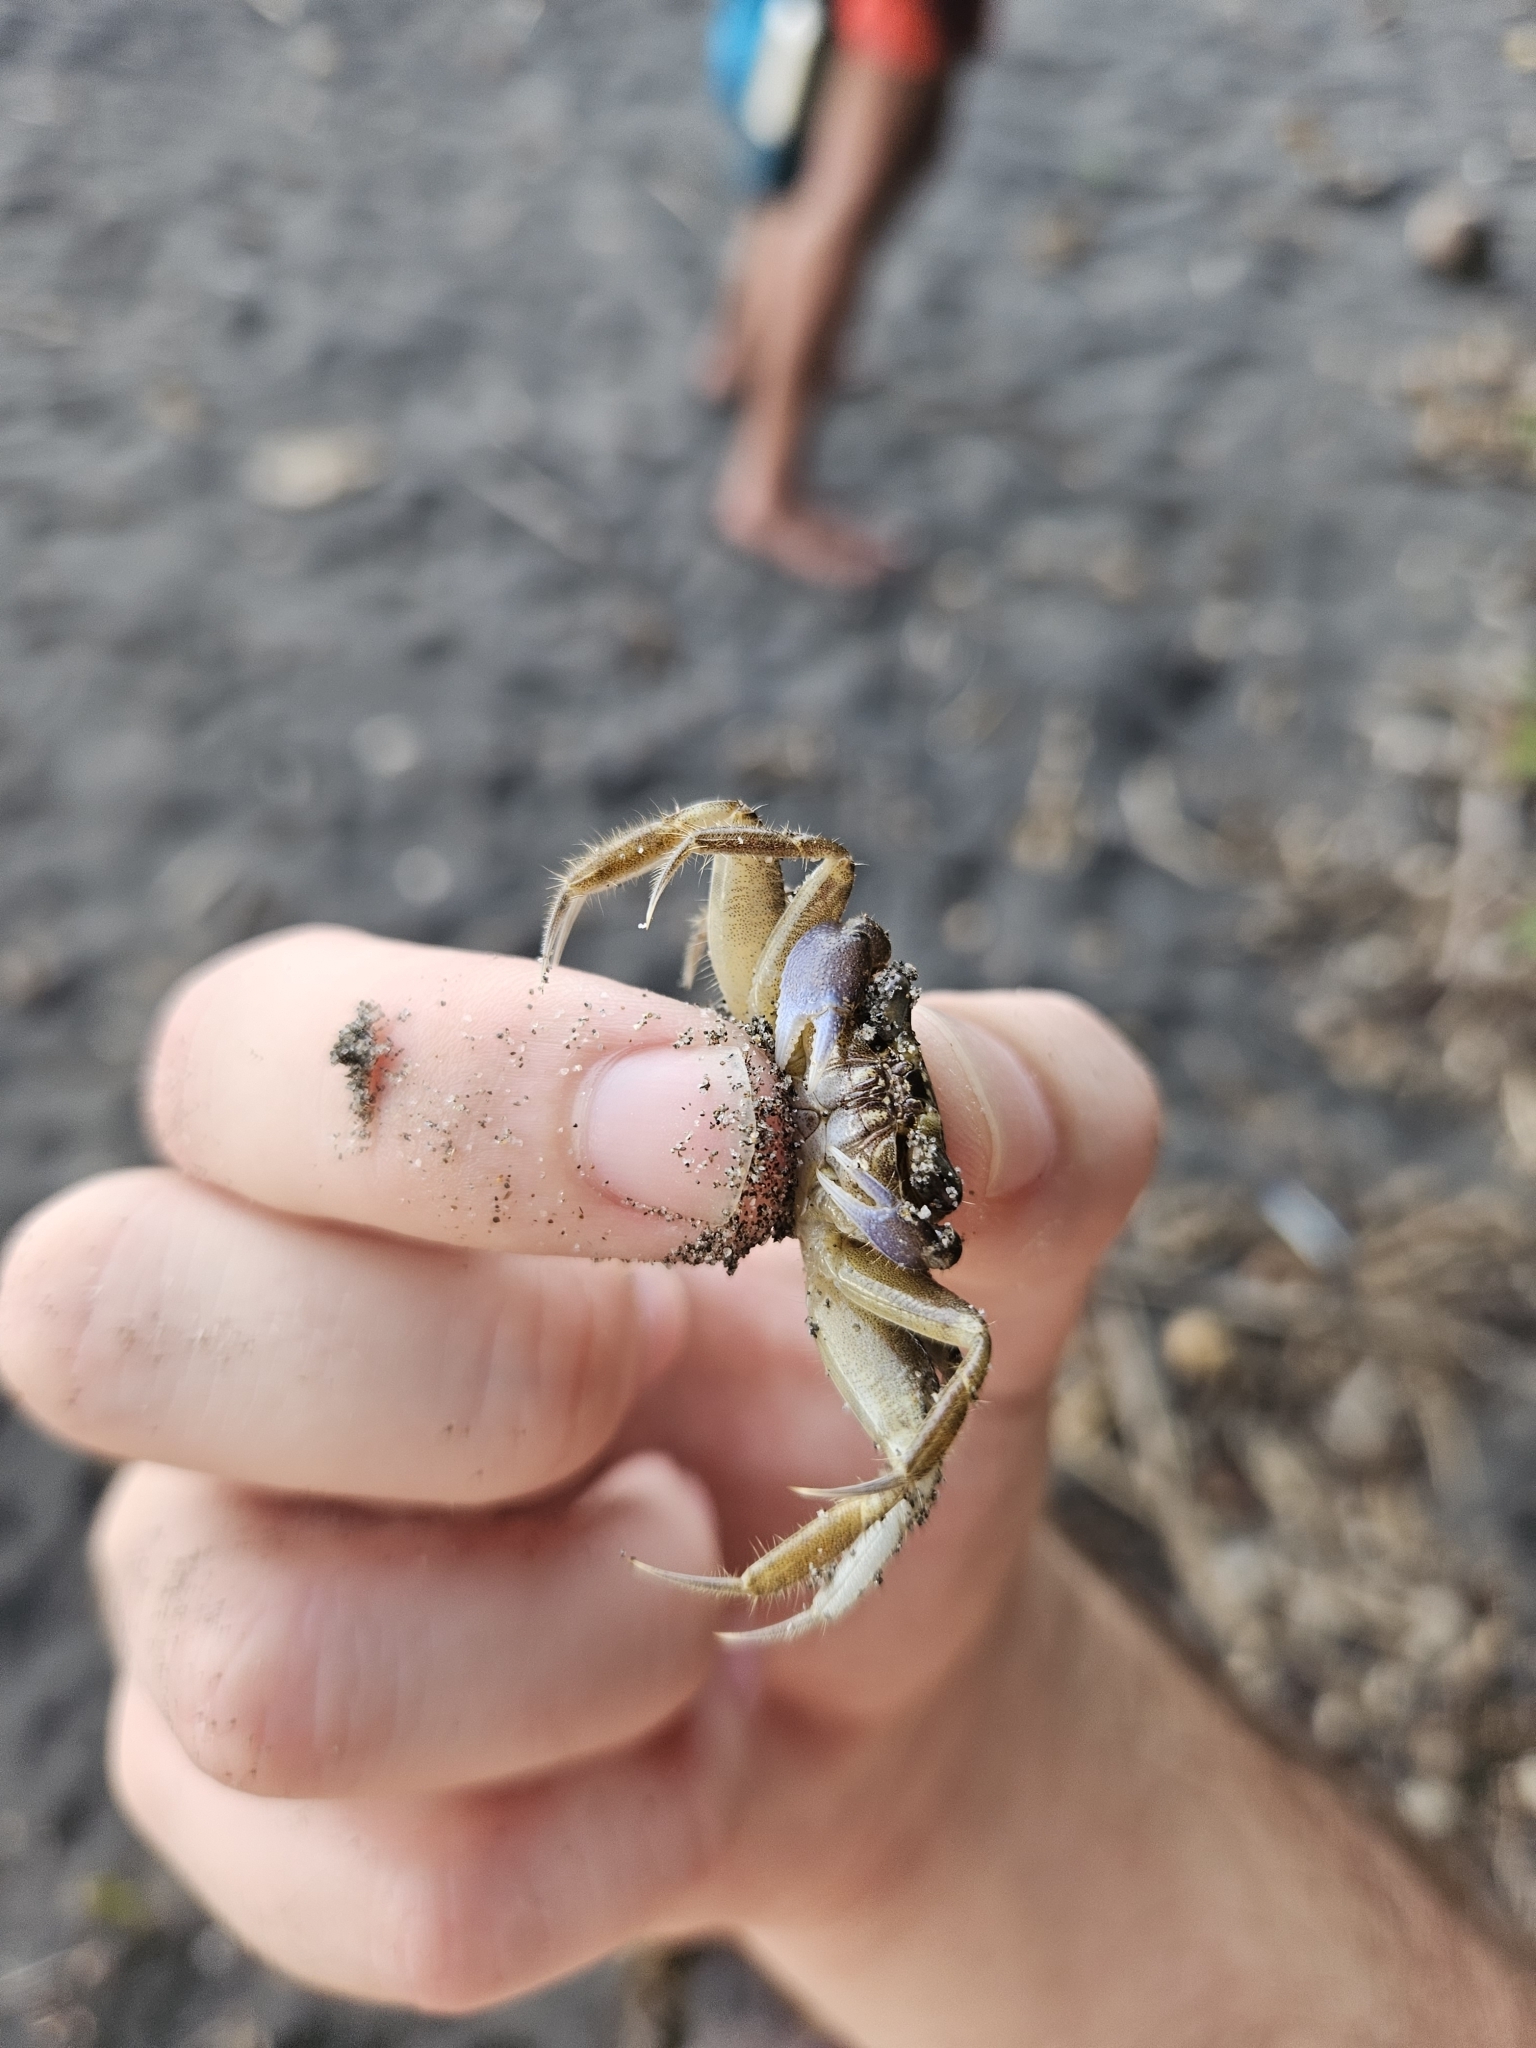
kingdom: Animalia
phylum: Arthropoda
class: Malacostraca
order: Decapoda
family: Ocypodidae
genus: Ocypode
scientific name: Ocypode quadrata
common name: Ghost crab
